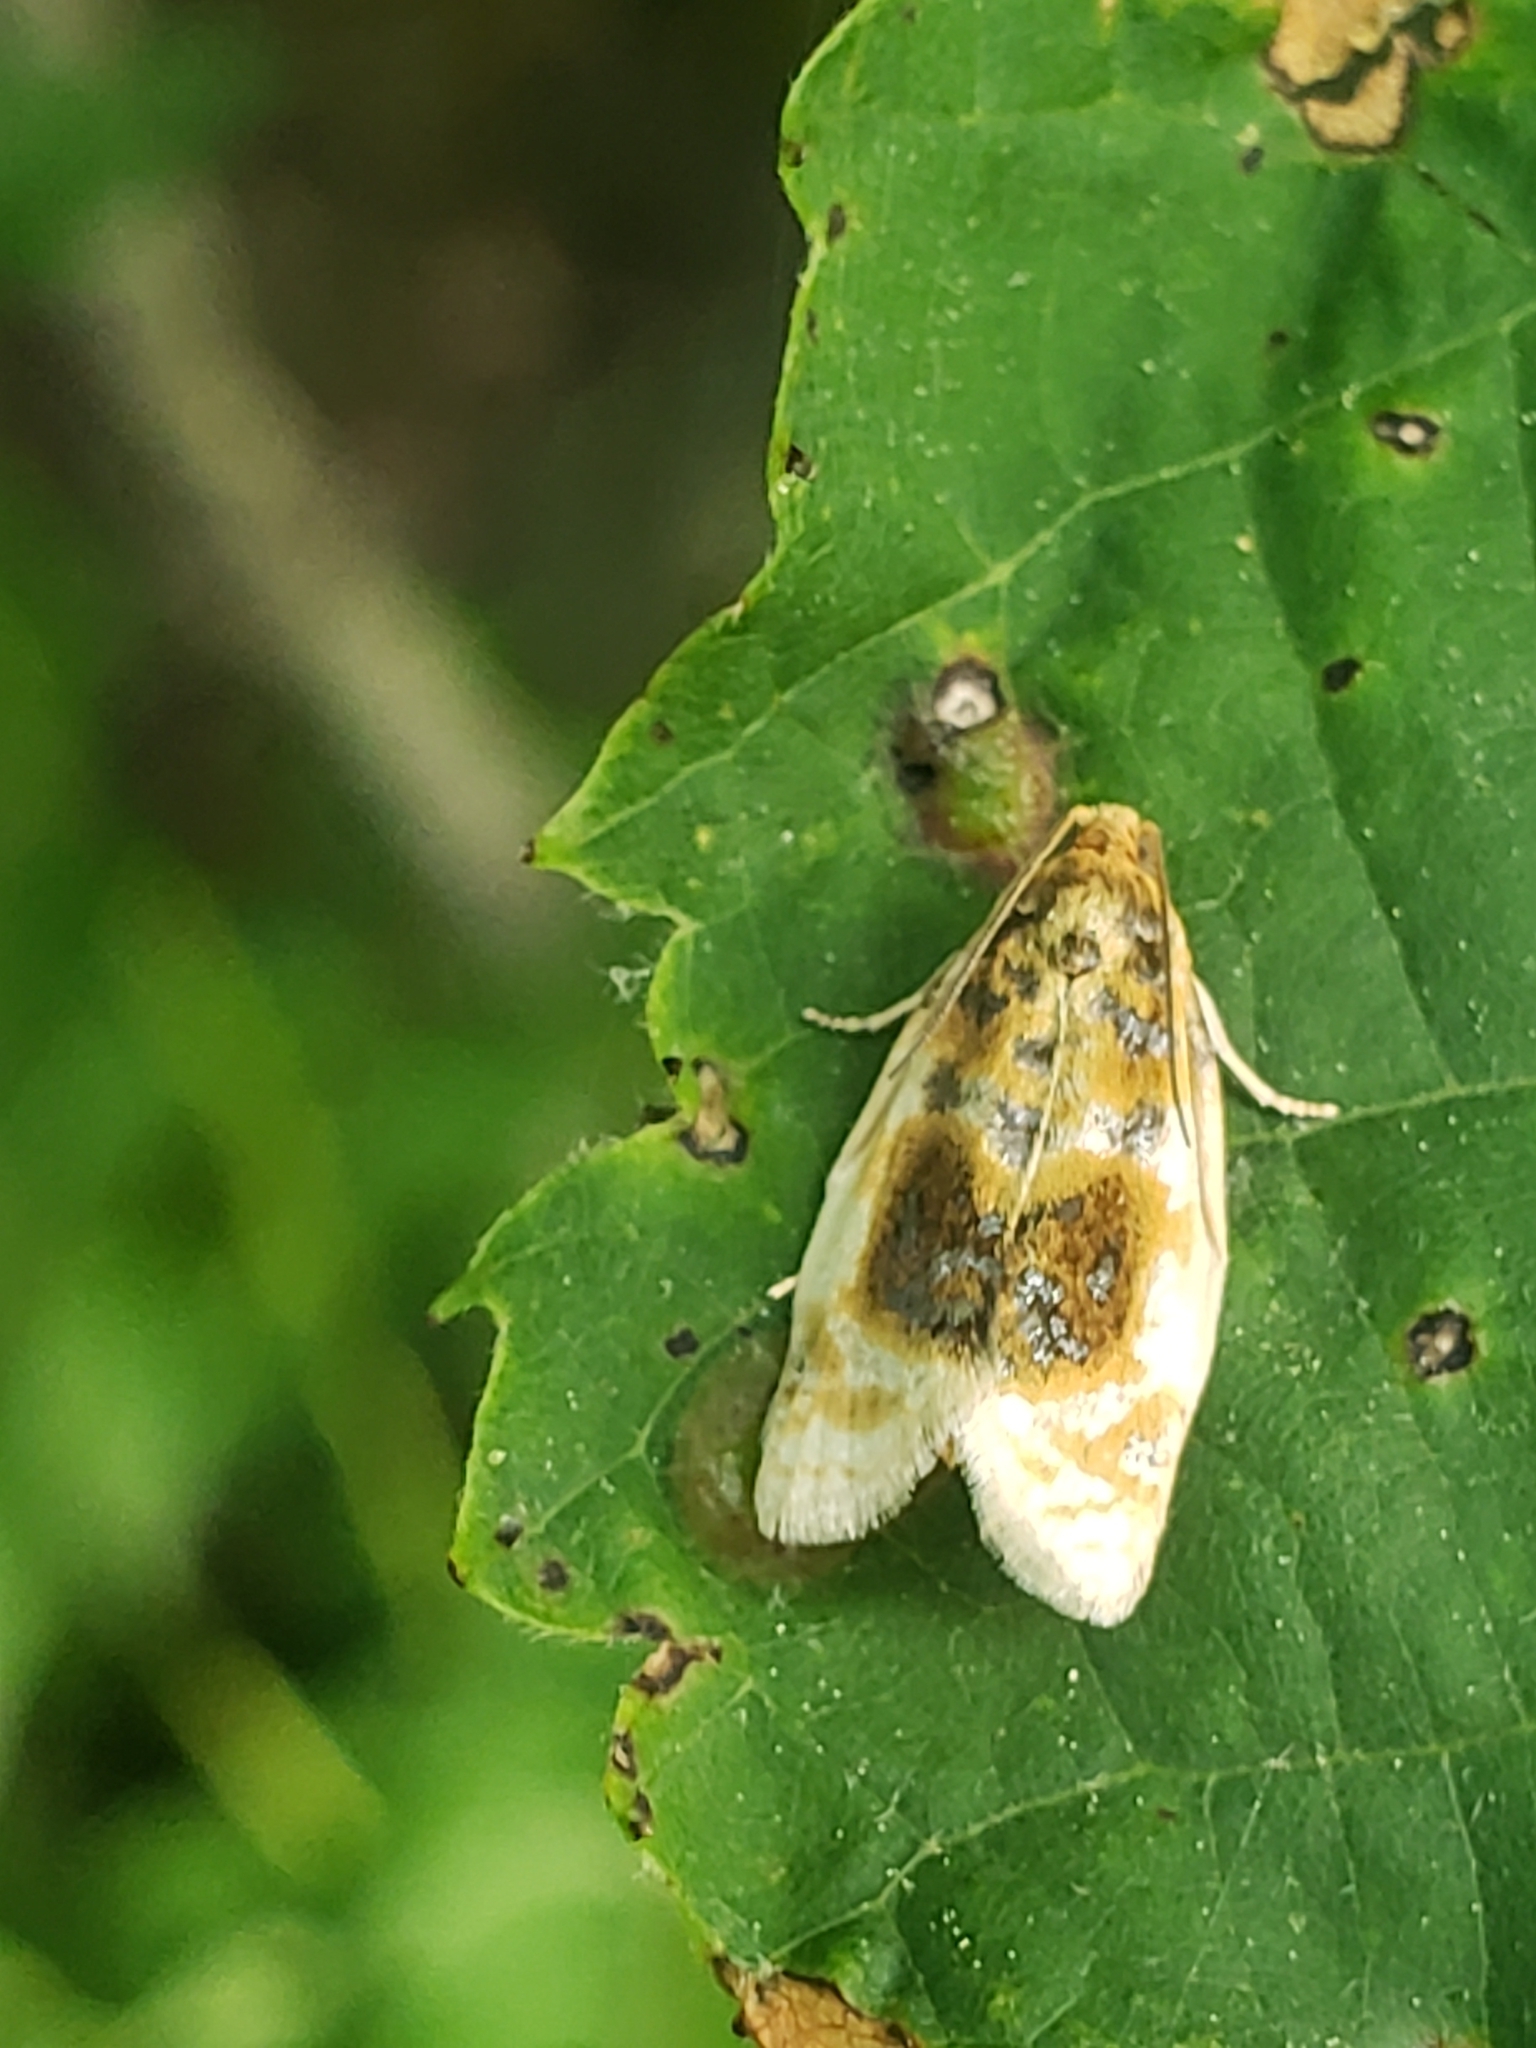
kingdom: Animalia
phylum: Arthropoda
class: Insecta
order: Lepidoptera
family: Tortricidae
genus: Clepsis
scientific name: Clepsis melaleucanus
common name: American apple tortrix
